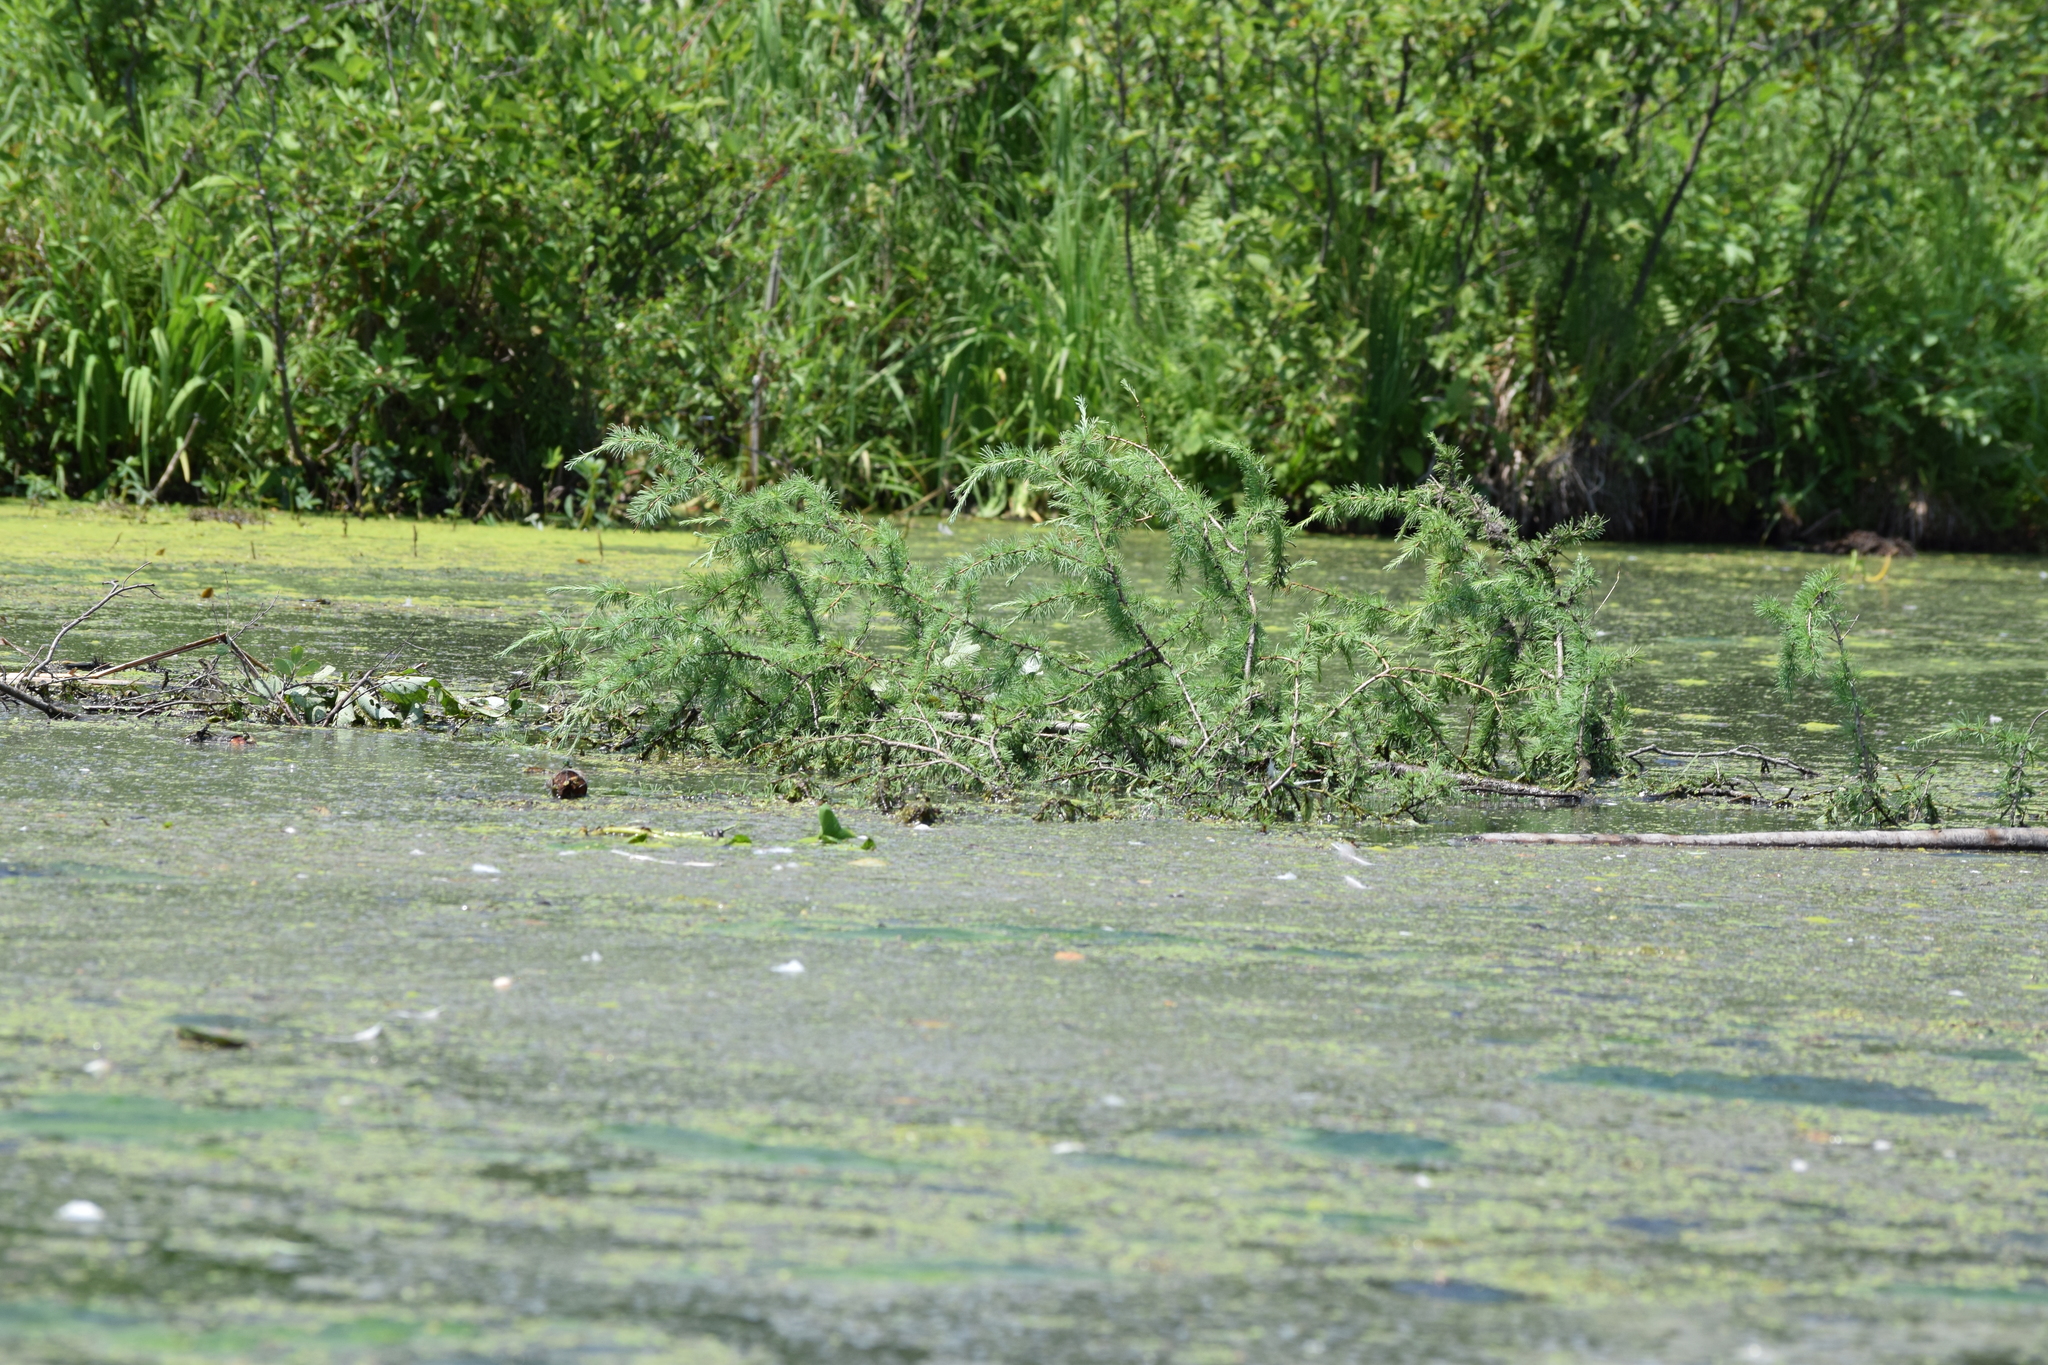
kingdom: Plantae
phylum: Tracheophyta
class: Pinopsida
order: Pinales
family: Pinaceae
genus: Larix
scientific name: Larix laricina
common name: American larch
